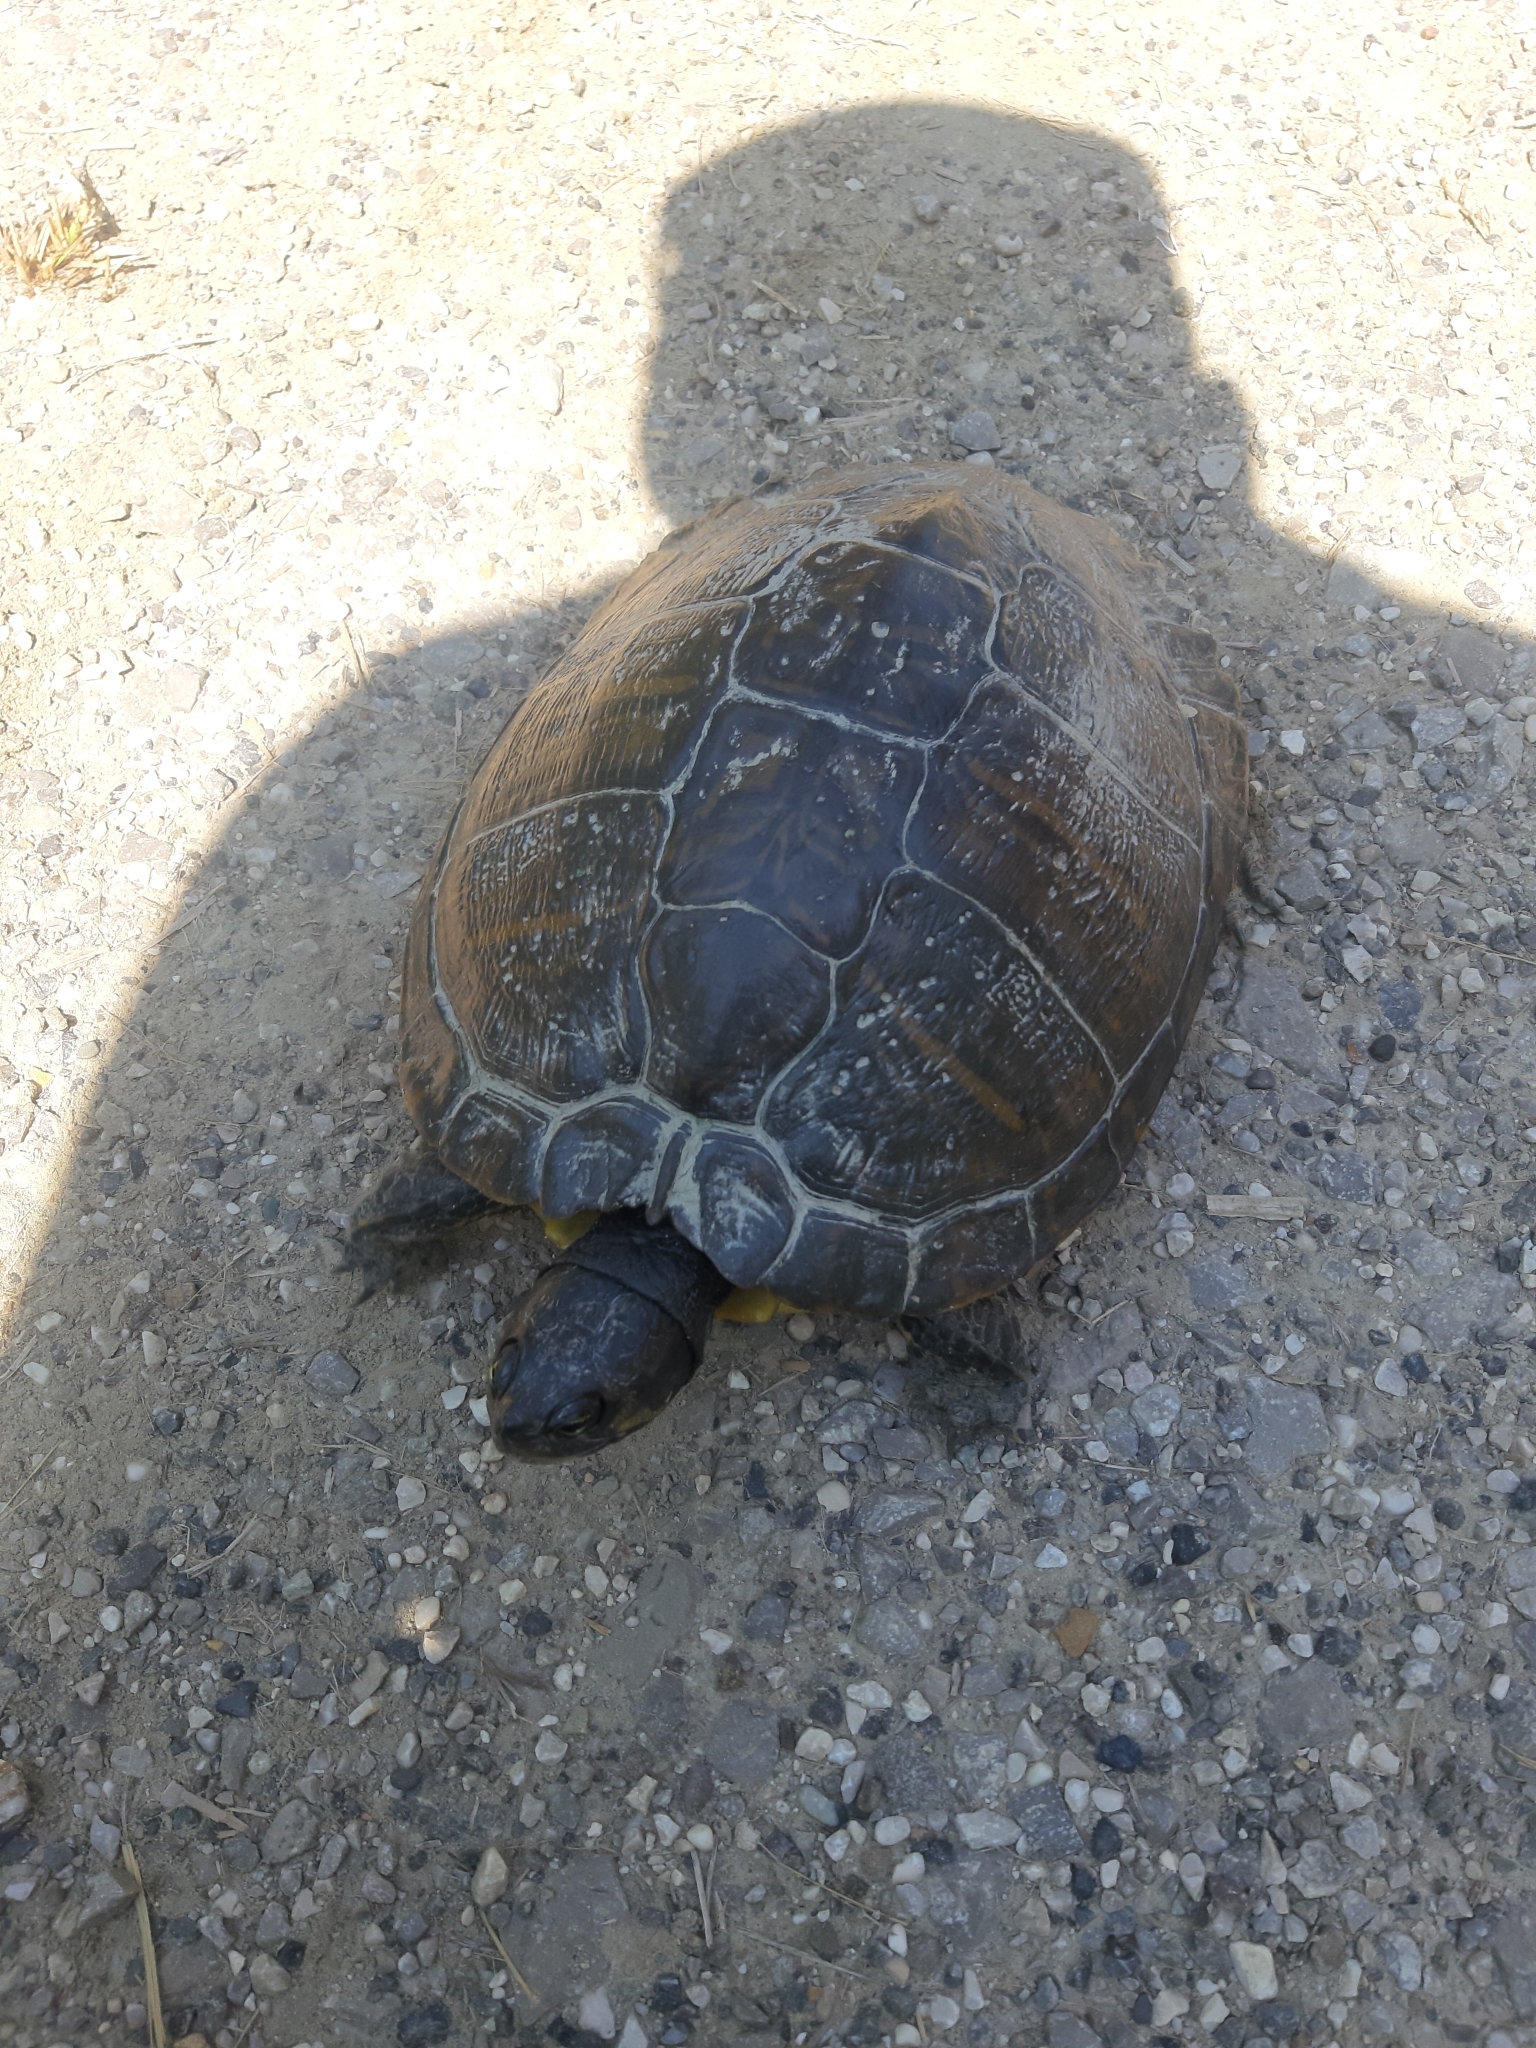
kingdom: Animalia
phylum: Chordata
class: Testudines
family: Emydidae
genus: Trachemys
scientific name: Trachemys scripta
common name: Slider
